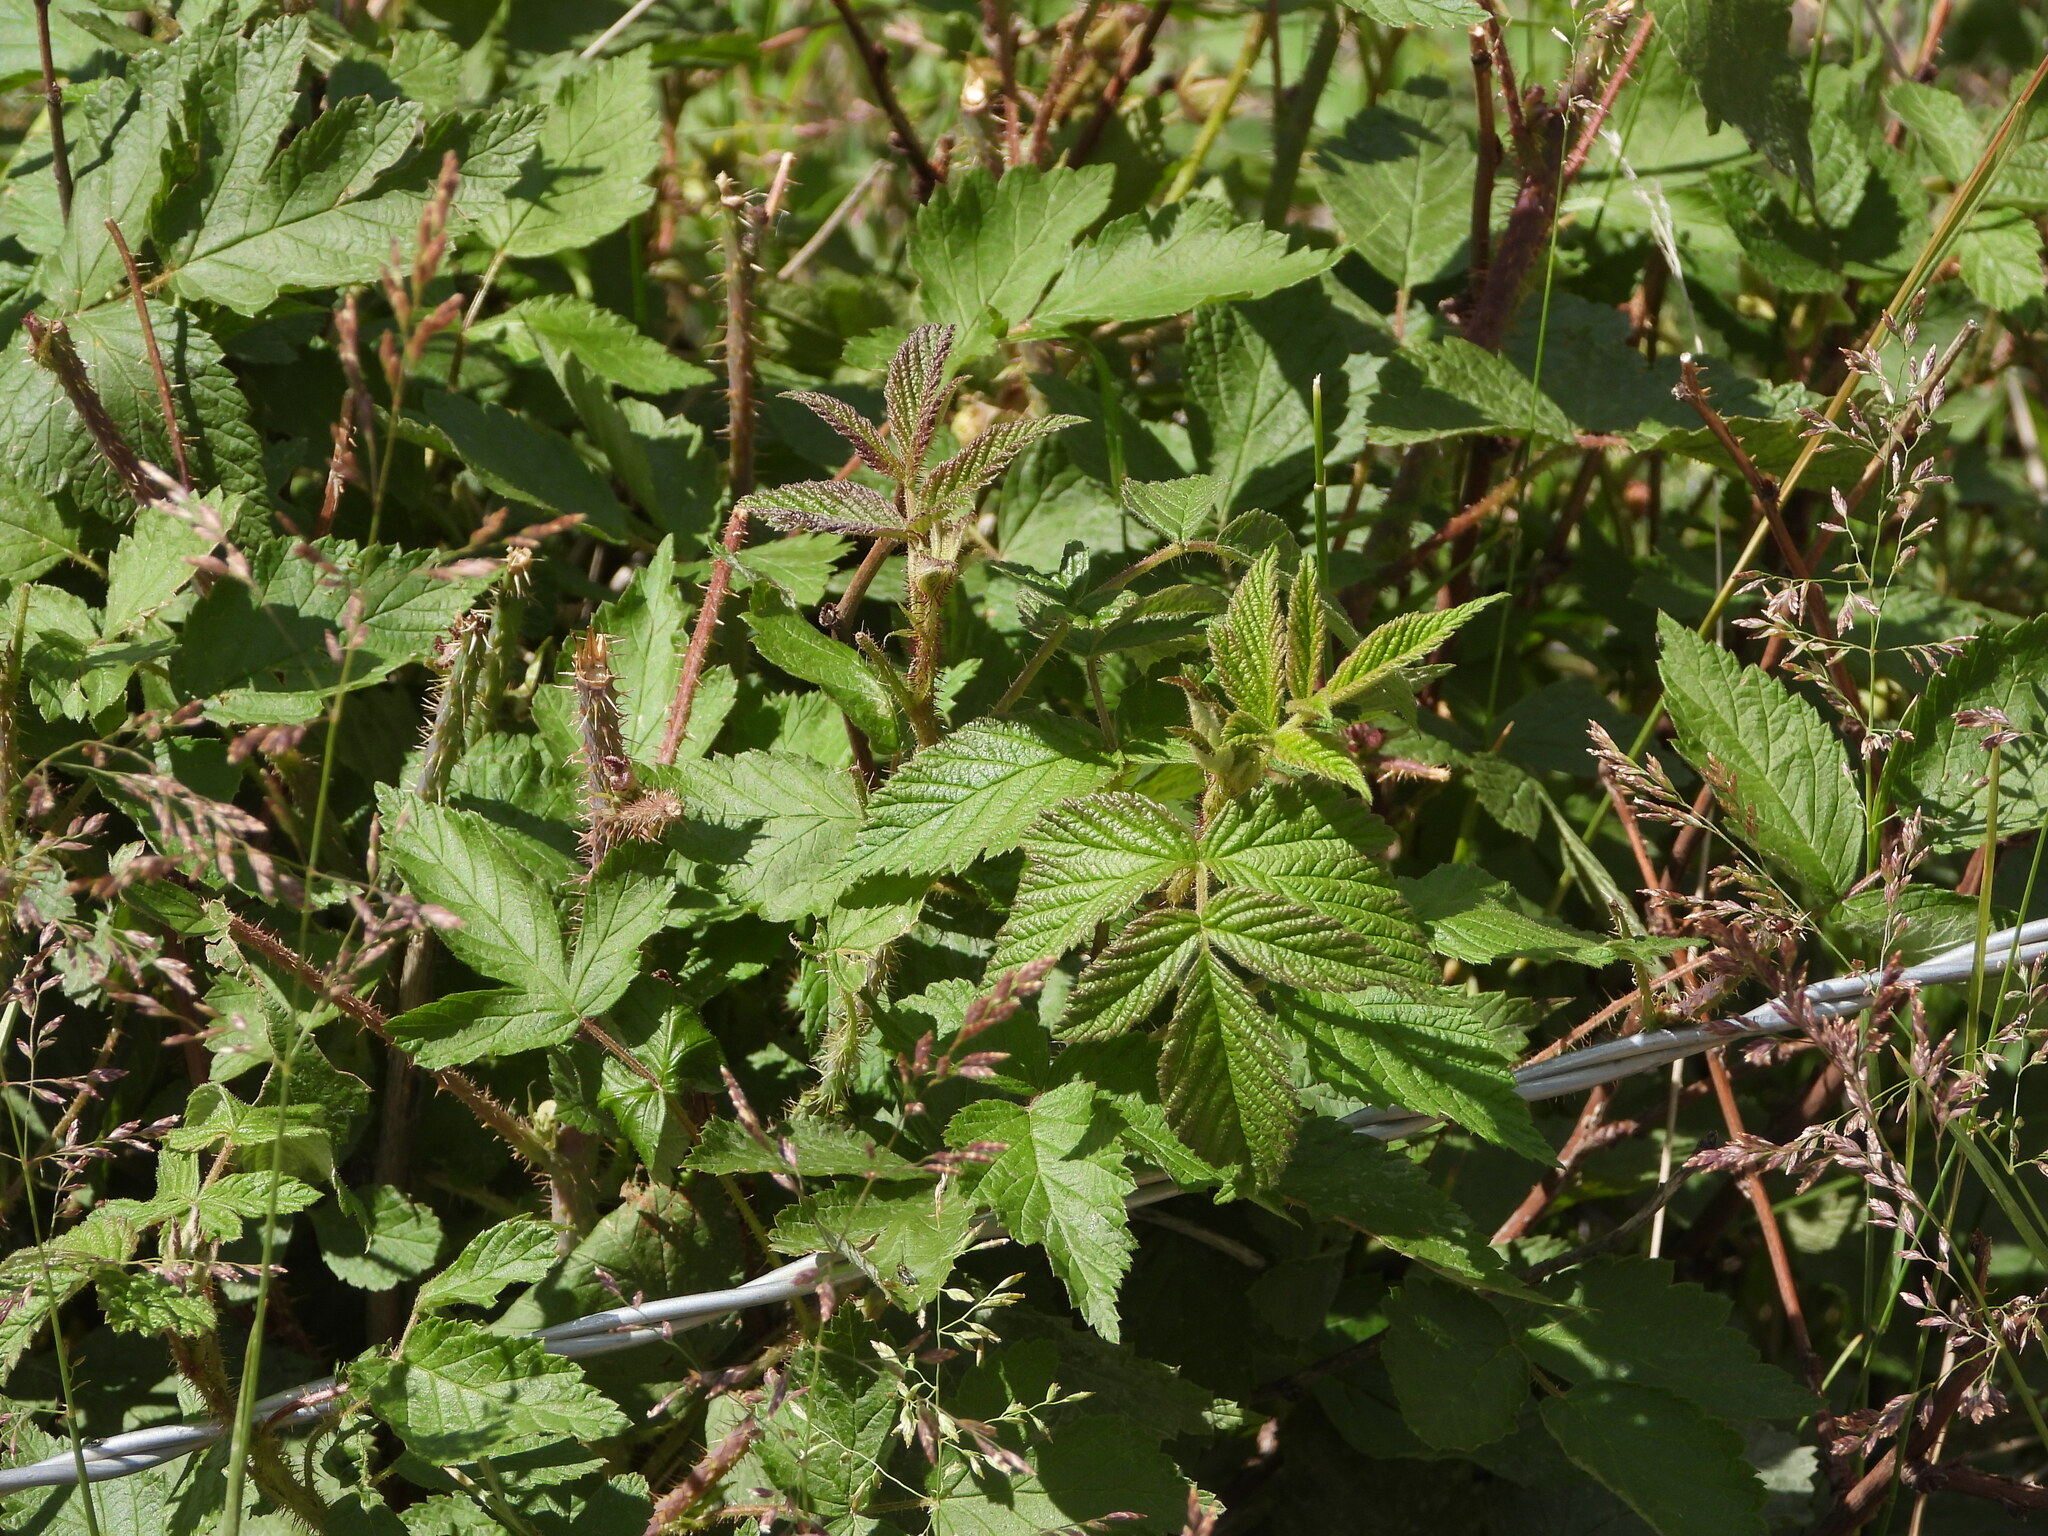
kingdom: Plantae
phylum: Tracheophyta
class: Magnoliopsida
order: Rosales
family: Rosaceae
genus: Rubus
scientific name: Rubus idaeus
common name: Raspberry
